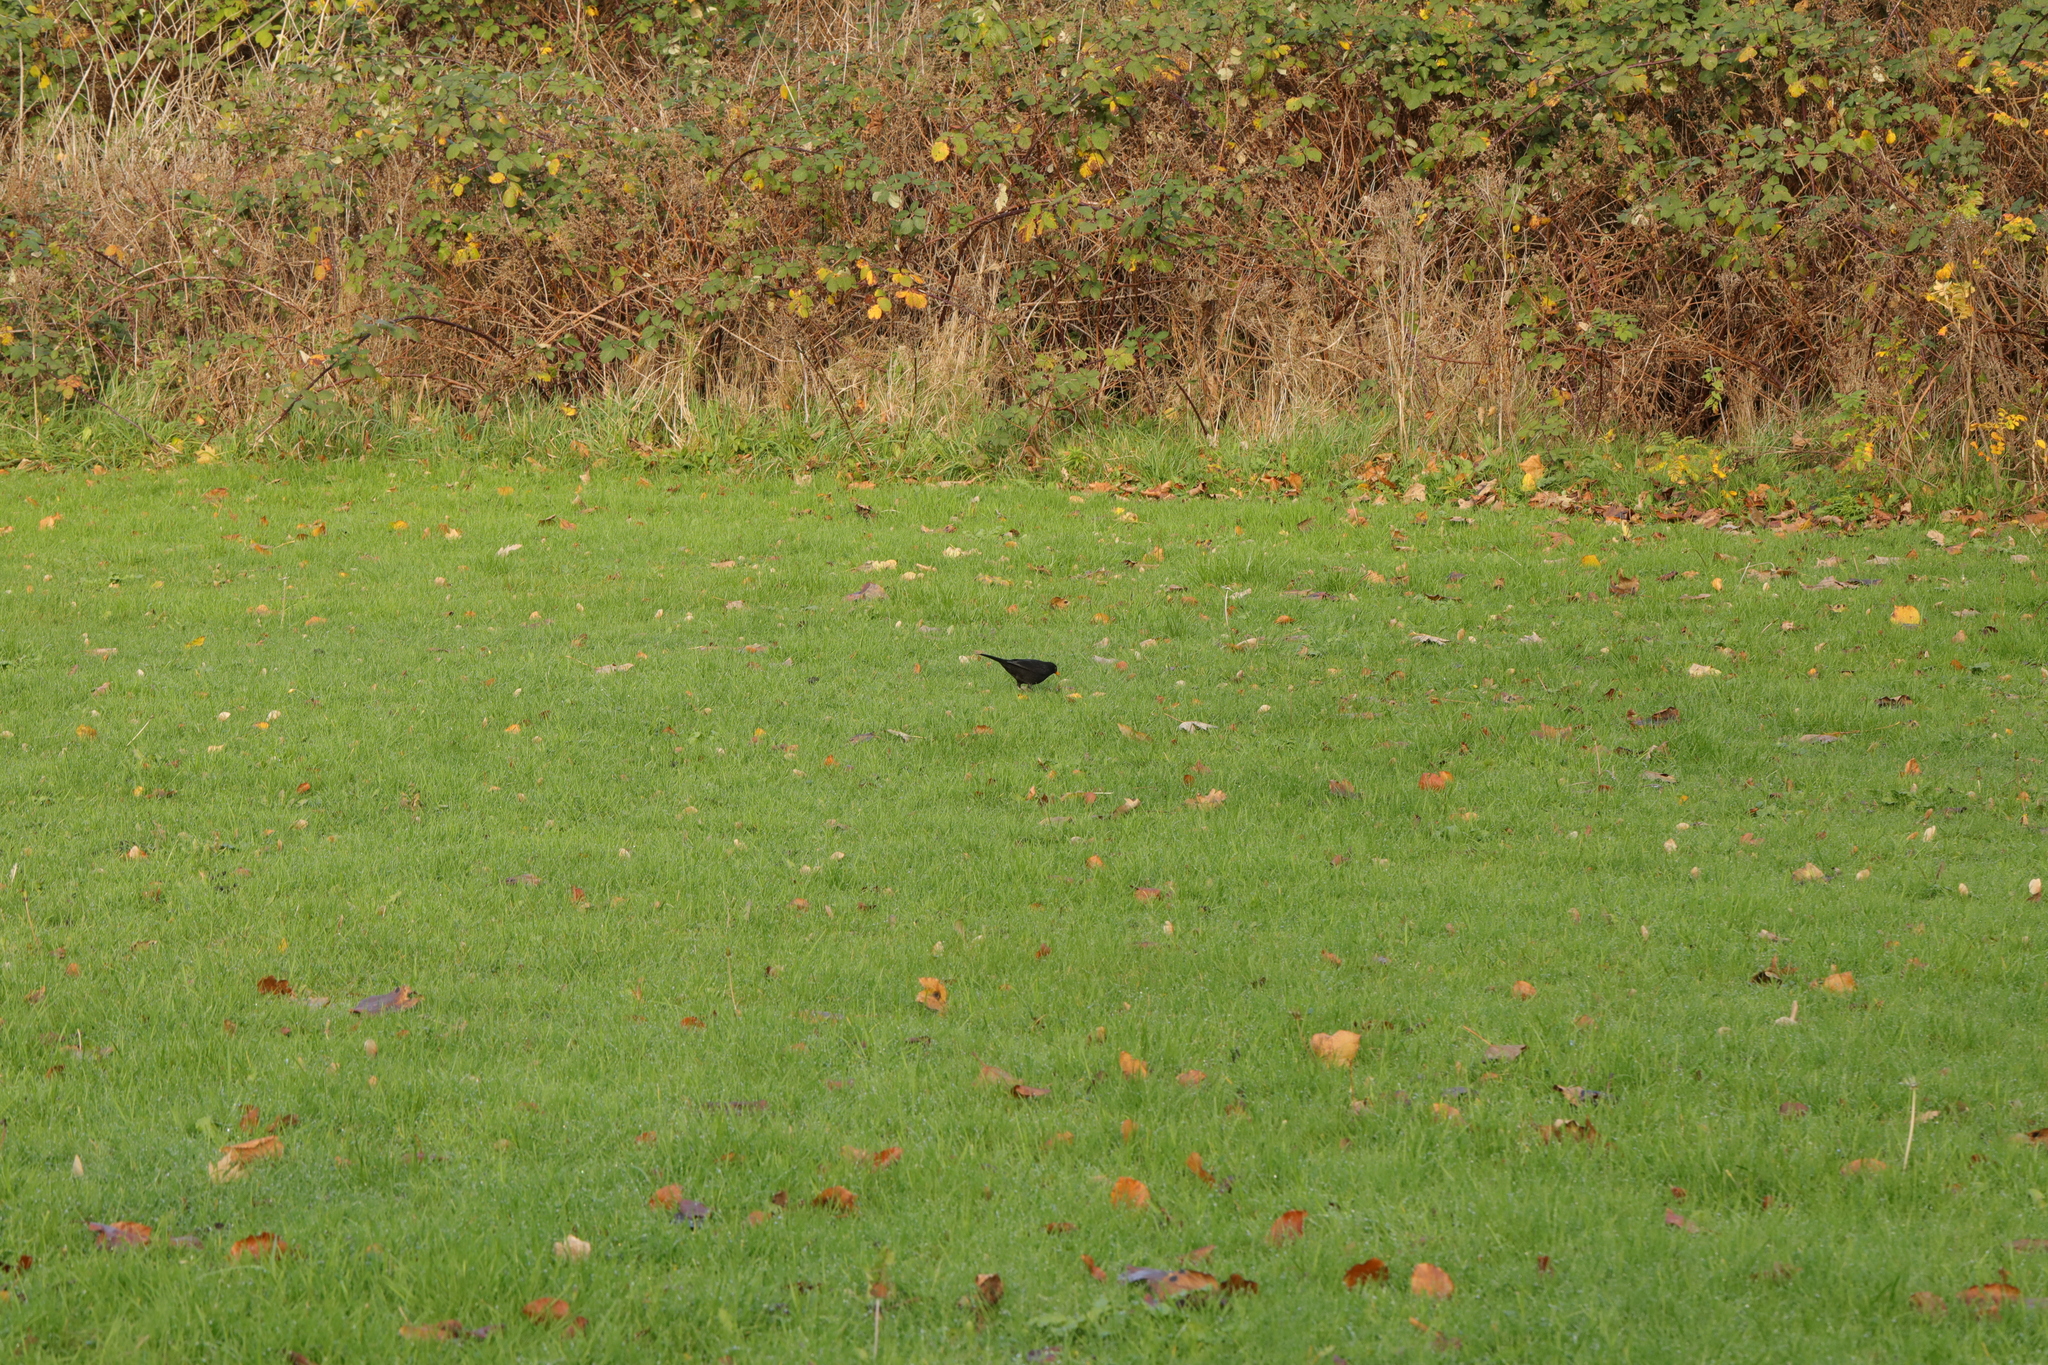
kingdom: Animalia
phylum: Chordata
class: Aves
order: Passeriformes
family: Turdidae
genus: Turdus
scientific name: Turdus merula
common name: Common blackbird
